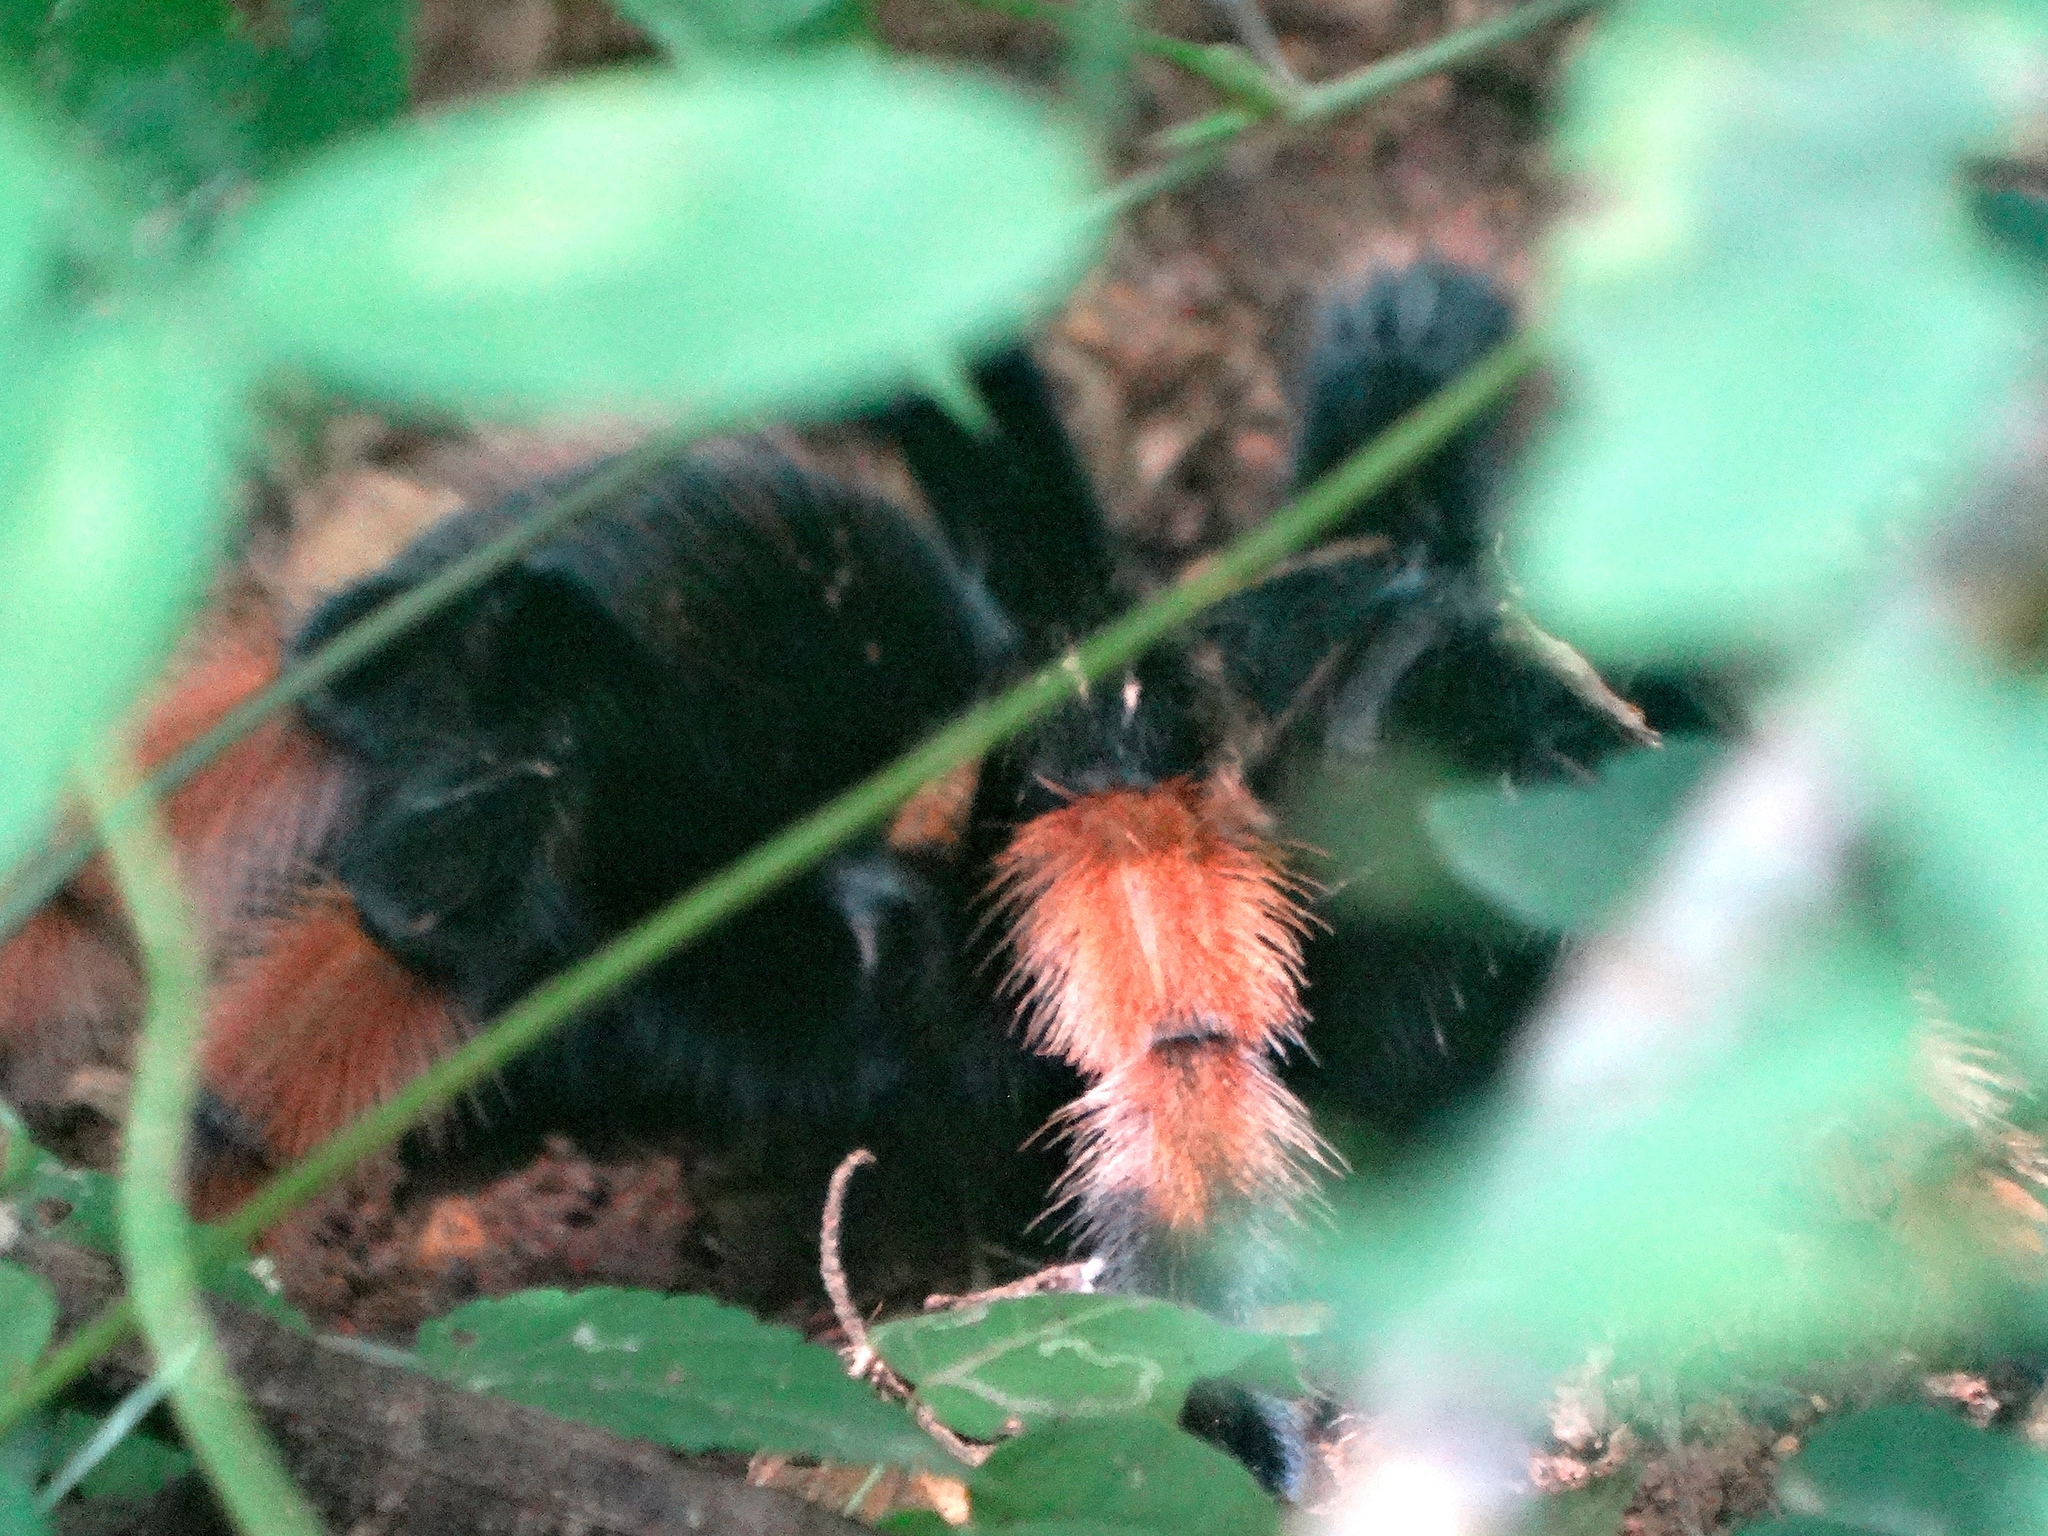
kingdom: Animalia
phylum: Arthropoda
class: Arachnida
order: Araneae
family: Theraphosidae
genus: Brachypelma
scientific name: Brachypelma emilia
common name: Mexican redleg
